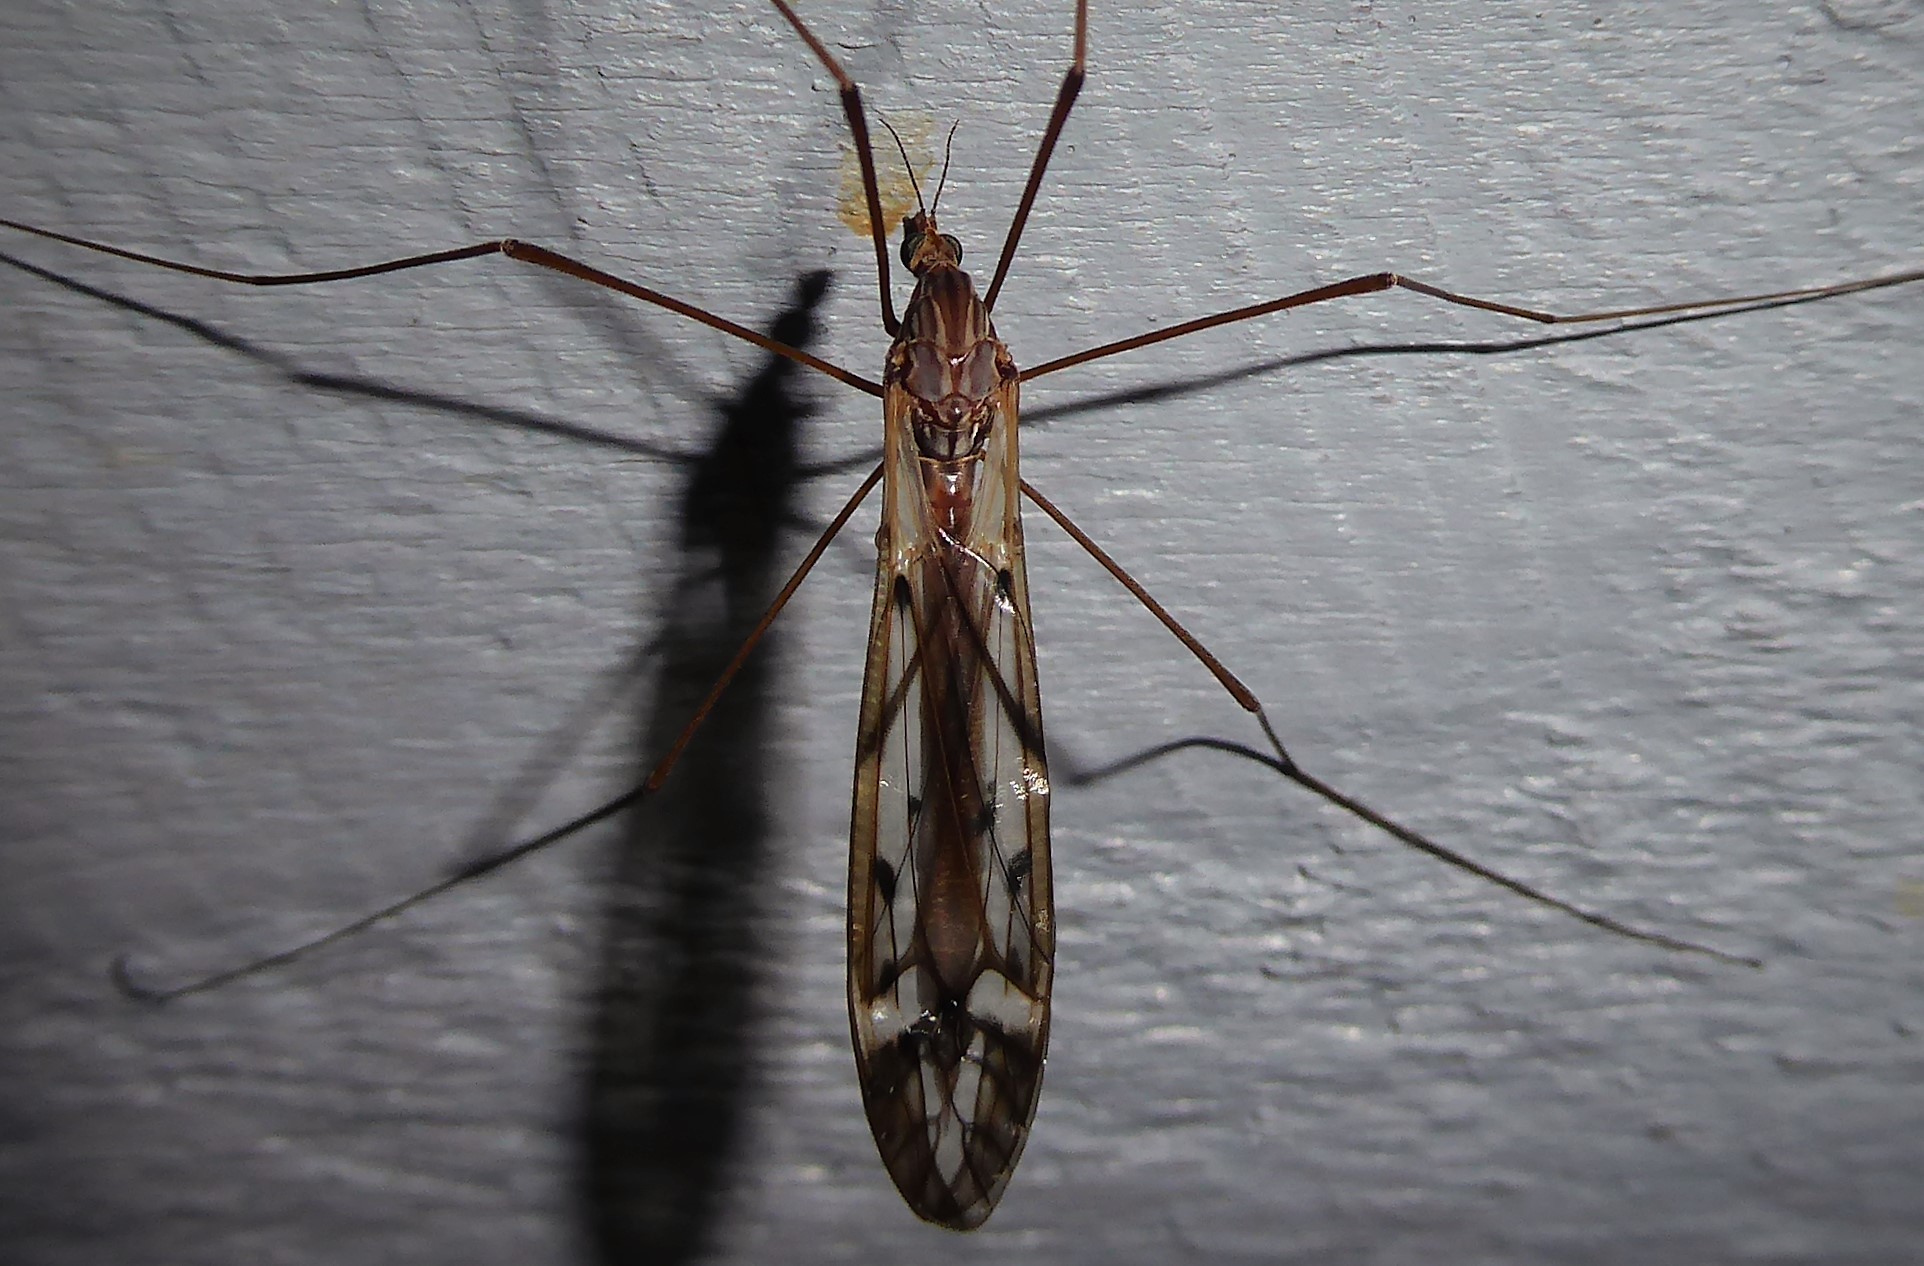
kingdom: Animalia
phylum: Arthropoda
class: Insecta
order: Diptera
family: Tipulidae
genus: Zelandotipula
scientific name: Zelandotipula novarae
